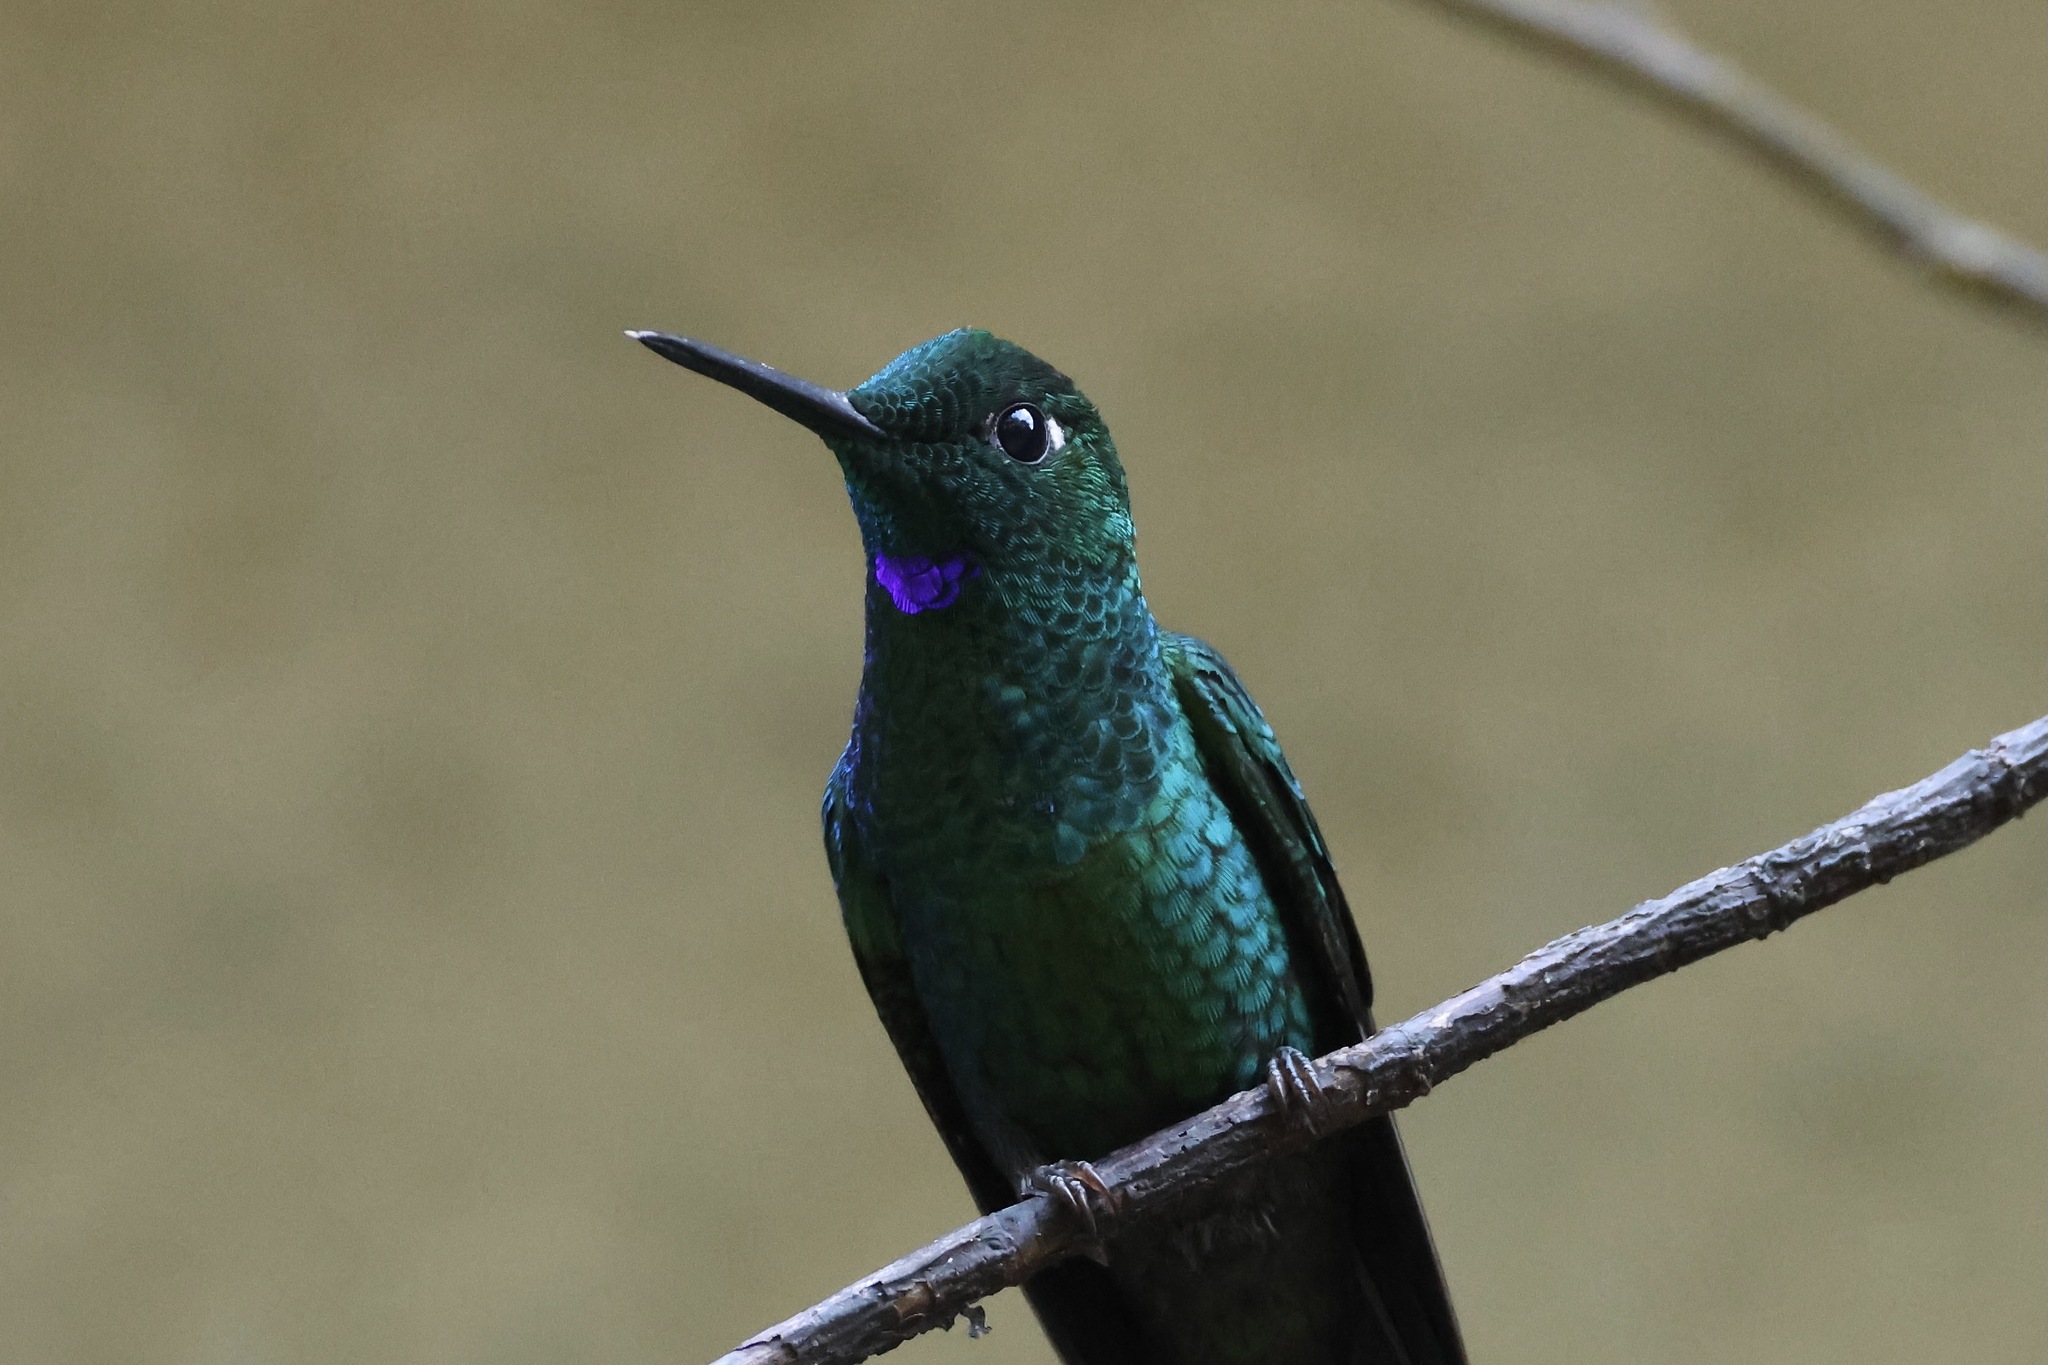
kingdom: Animalia
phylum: Chordata
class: Aves
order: Apodiformes
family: Trochilidae
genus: Heliodoxa
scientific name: Heliodoxa jacula
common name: Green-crowned brilliant
